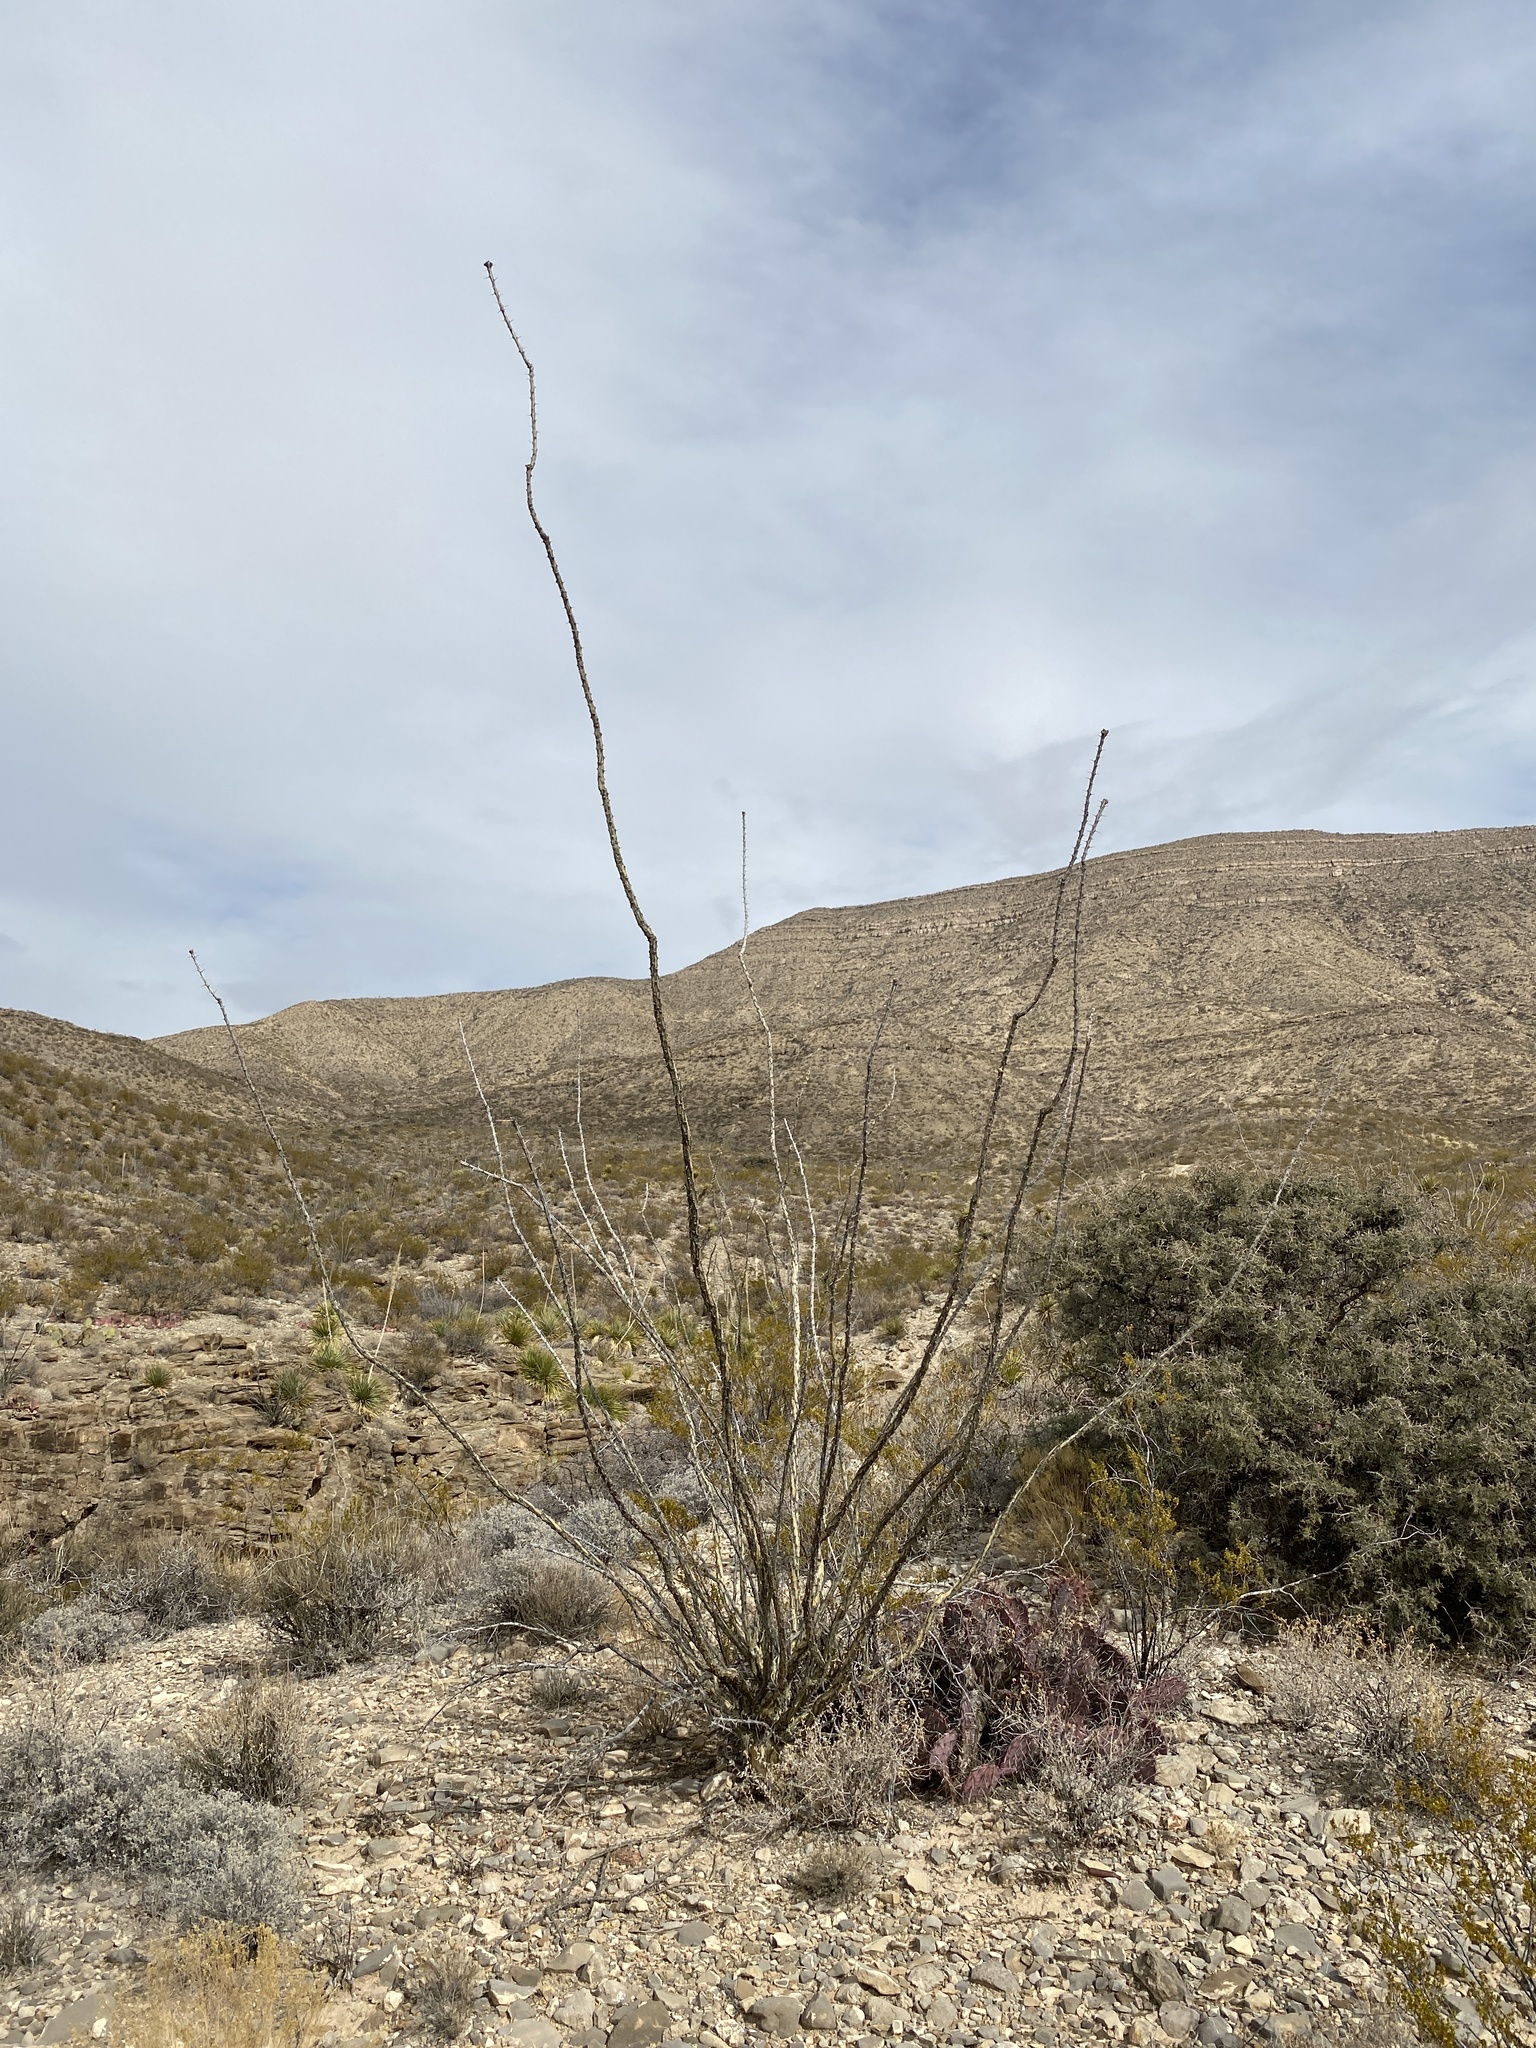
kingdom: Plantae
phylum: Tracheophyta
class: Magnoliopsida
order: Ericales
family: Fouquieriaceae
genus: Fouquieria
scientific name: Fouquieria splendens
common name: Vine-cactus
